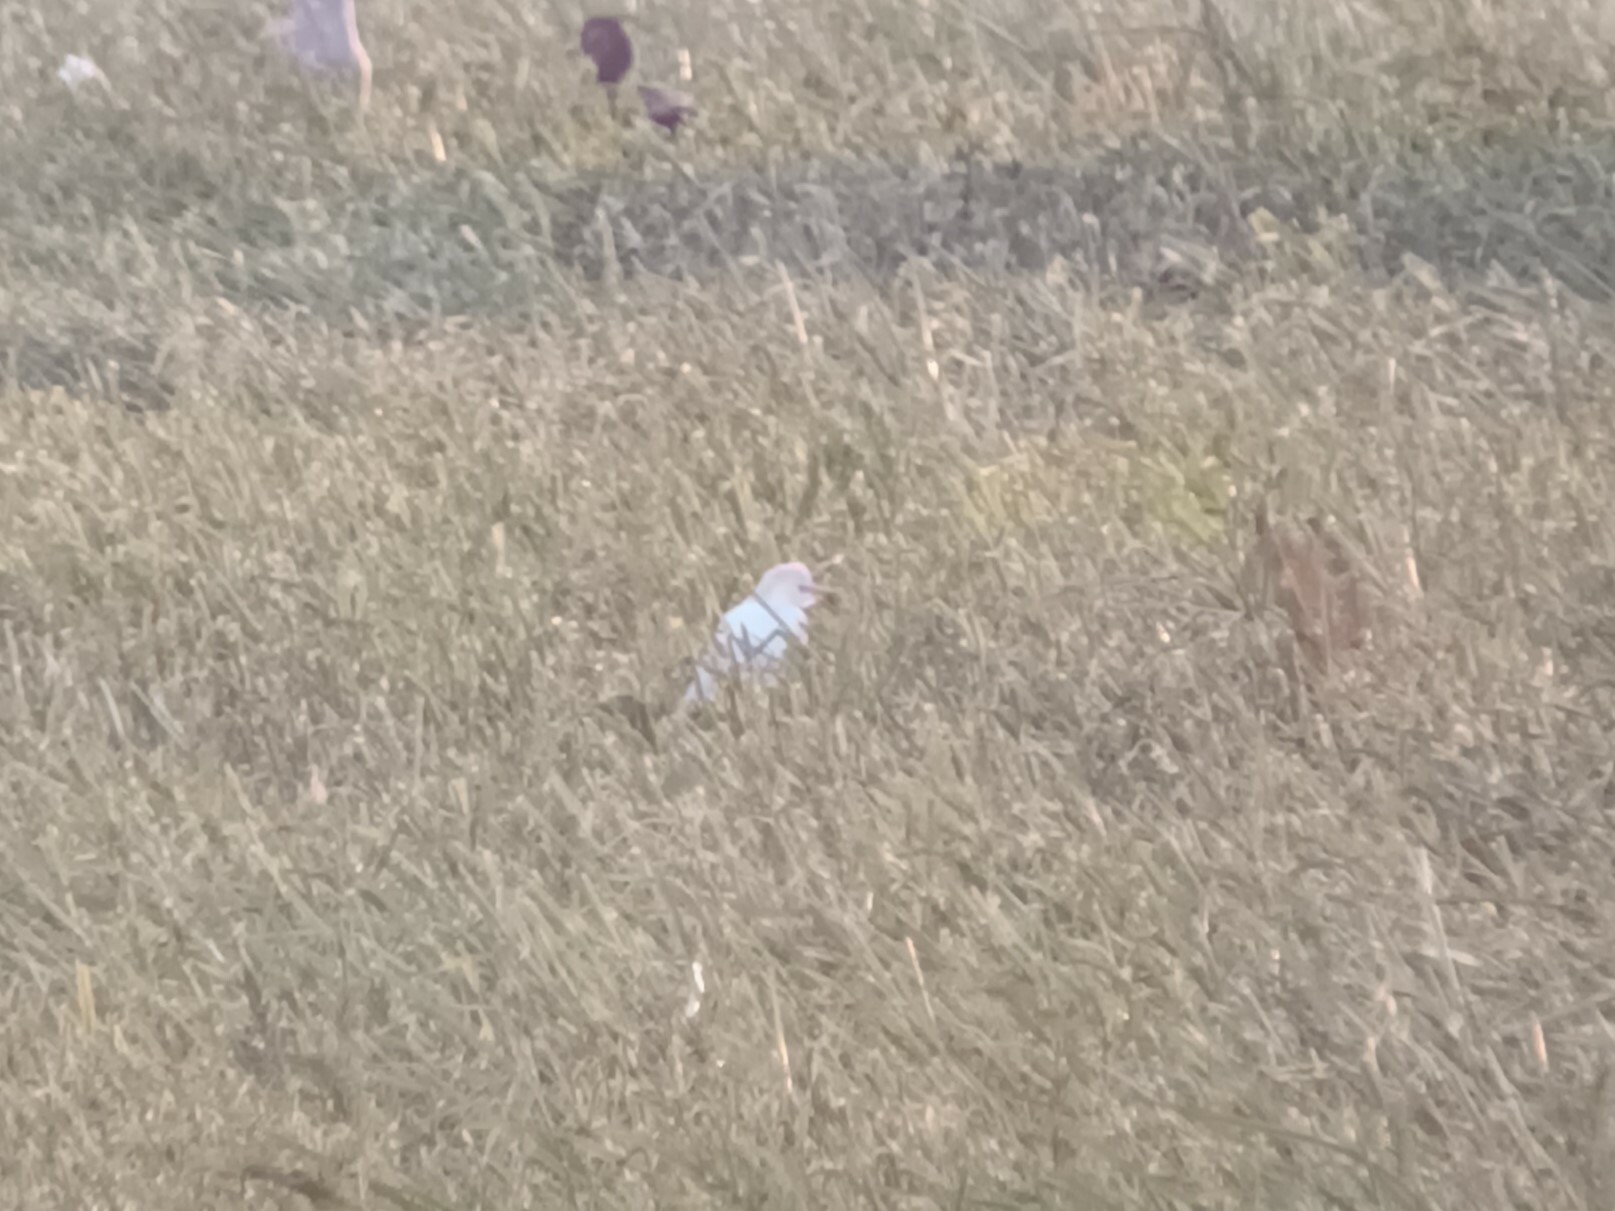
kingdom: Animalia
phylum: Chordata
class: Aves
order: Pelecaniformes
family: Ardeidae
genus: Bubulcus
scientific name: Bubulcus ibis
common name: Cattle egret
